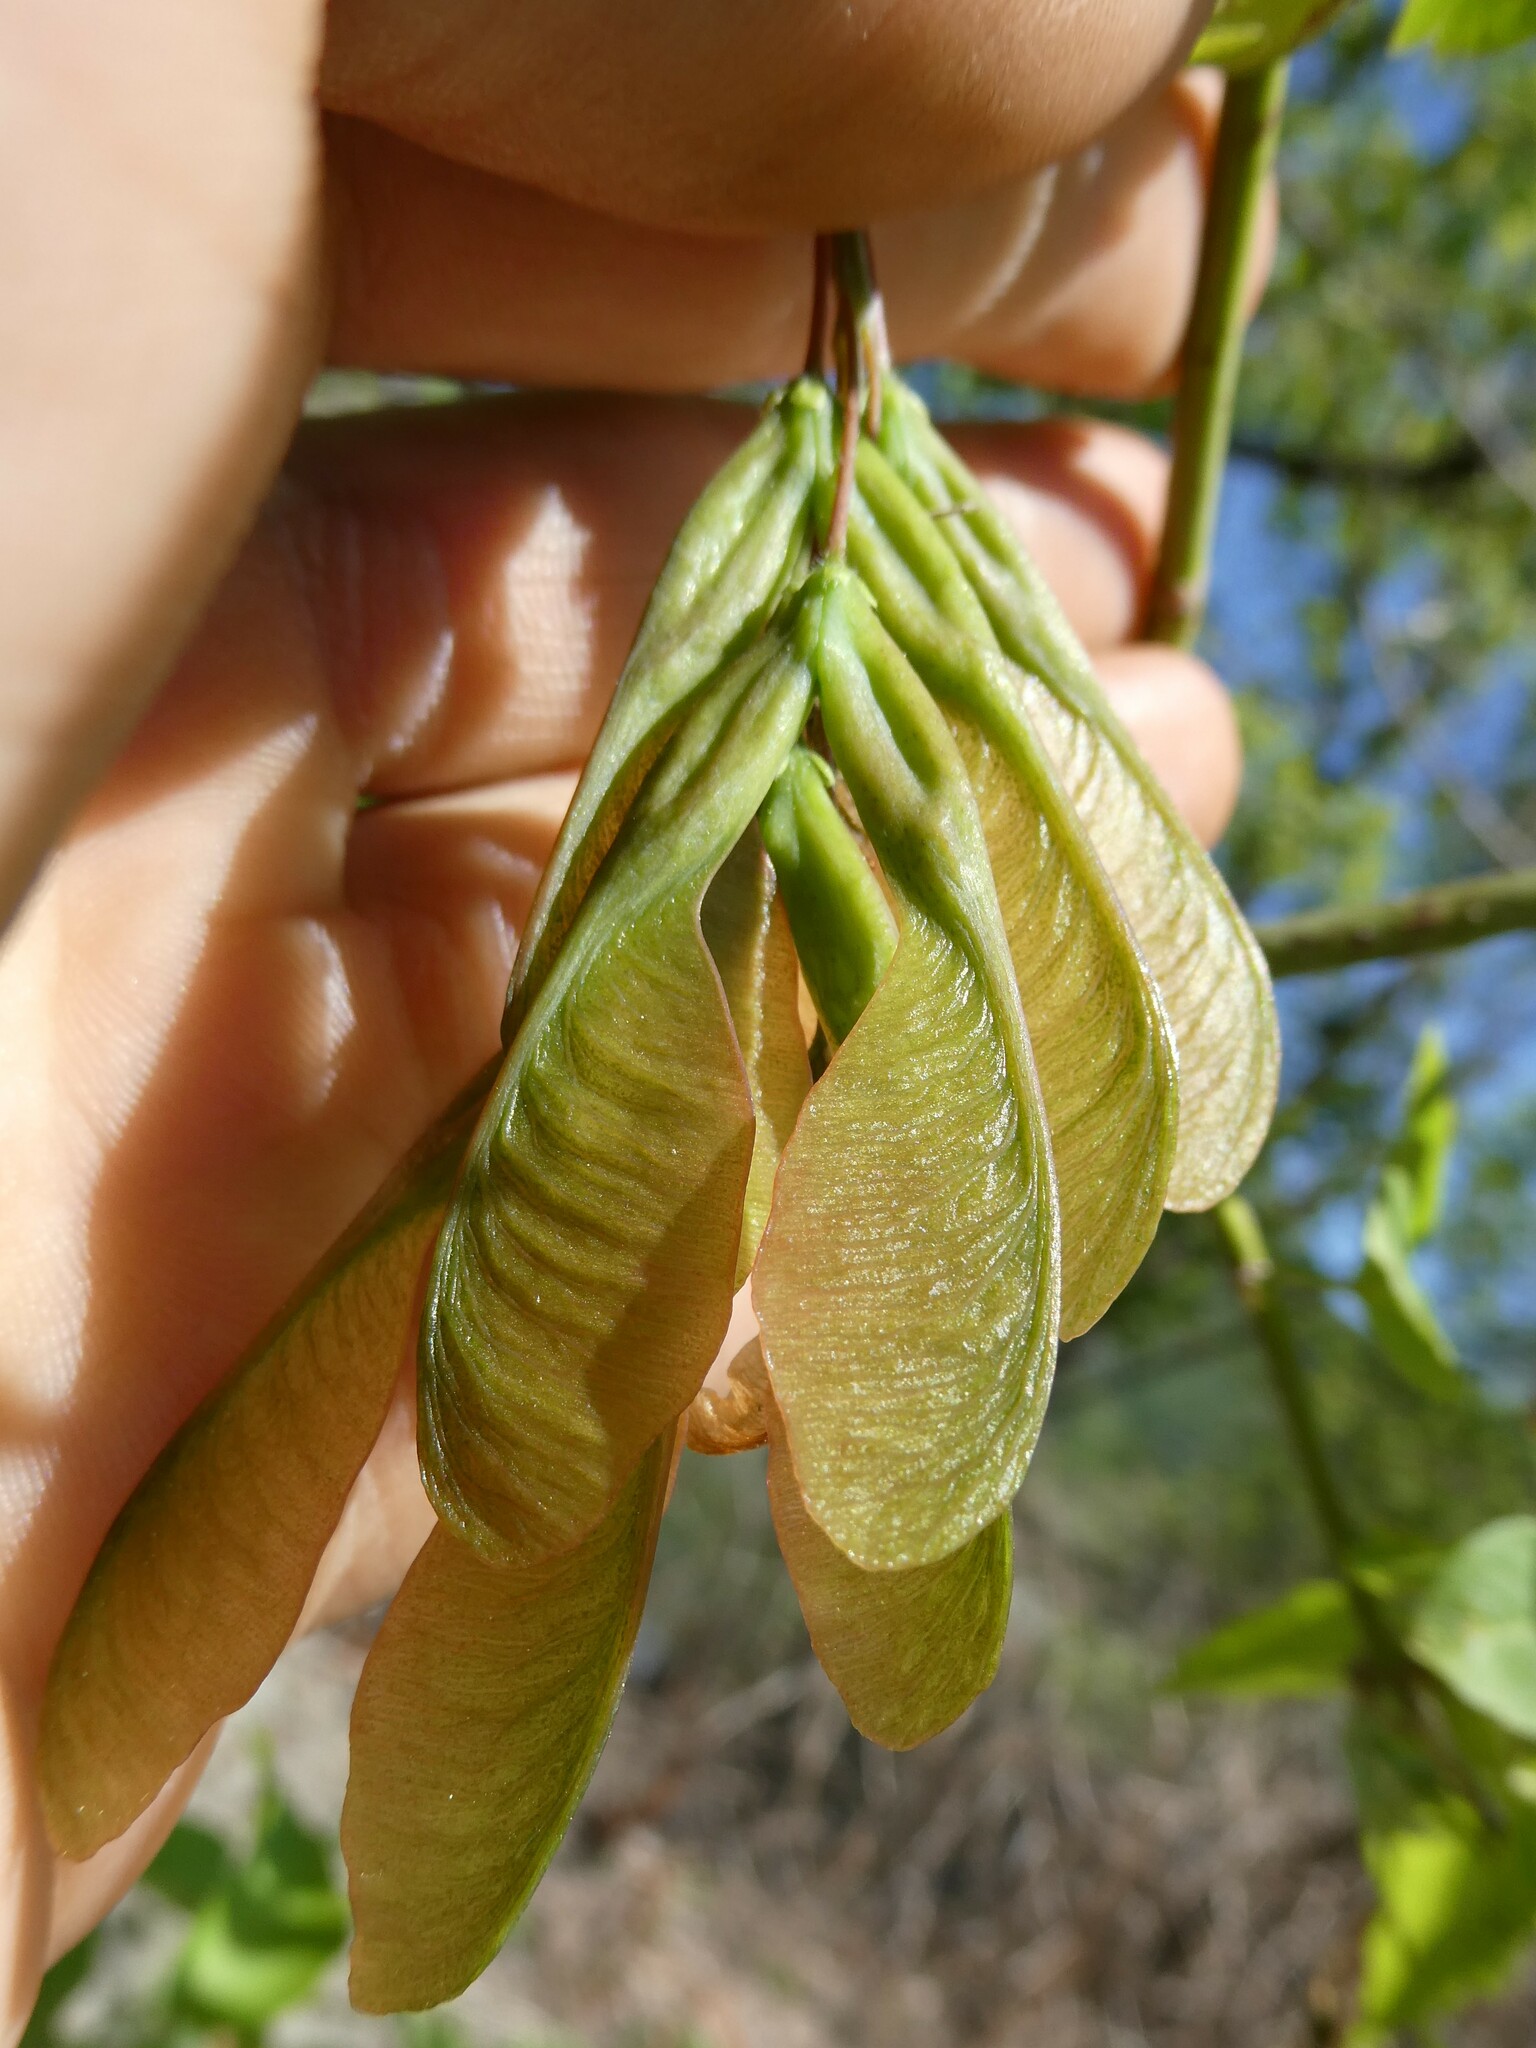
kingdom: Plantae
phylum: Tracheophyta
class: Magnoliopsida
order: Sapindales
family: Sapindaceae
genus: Acer
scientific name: Acer negundo
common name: Ashleaf maple
